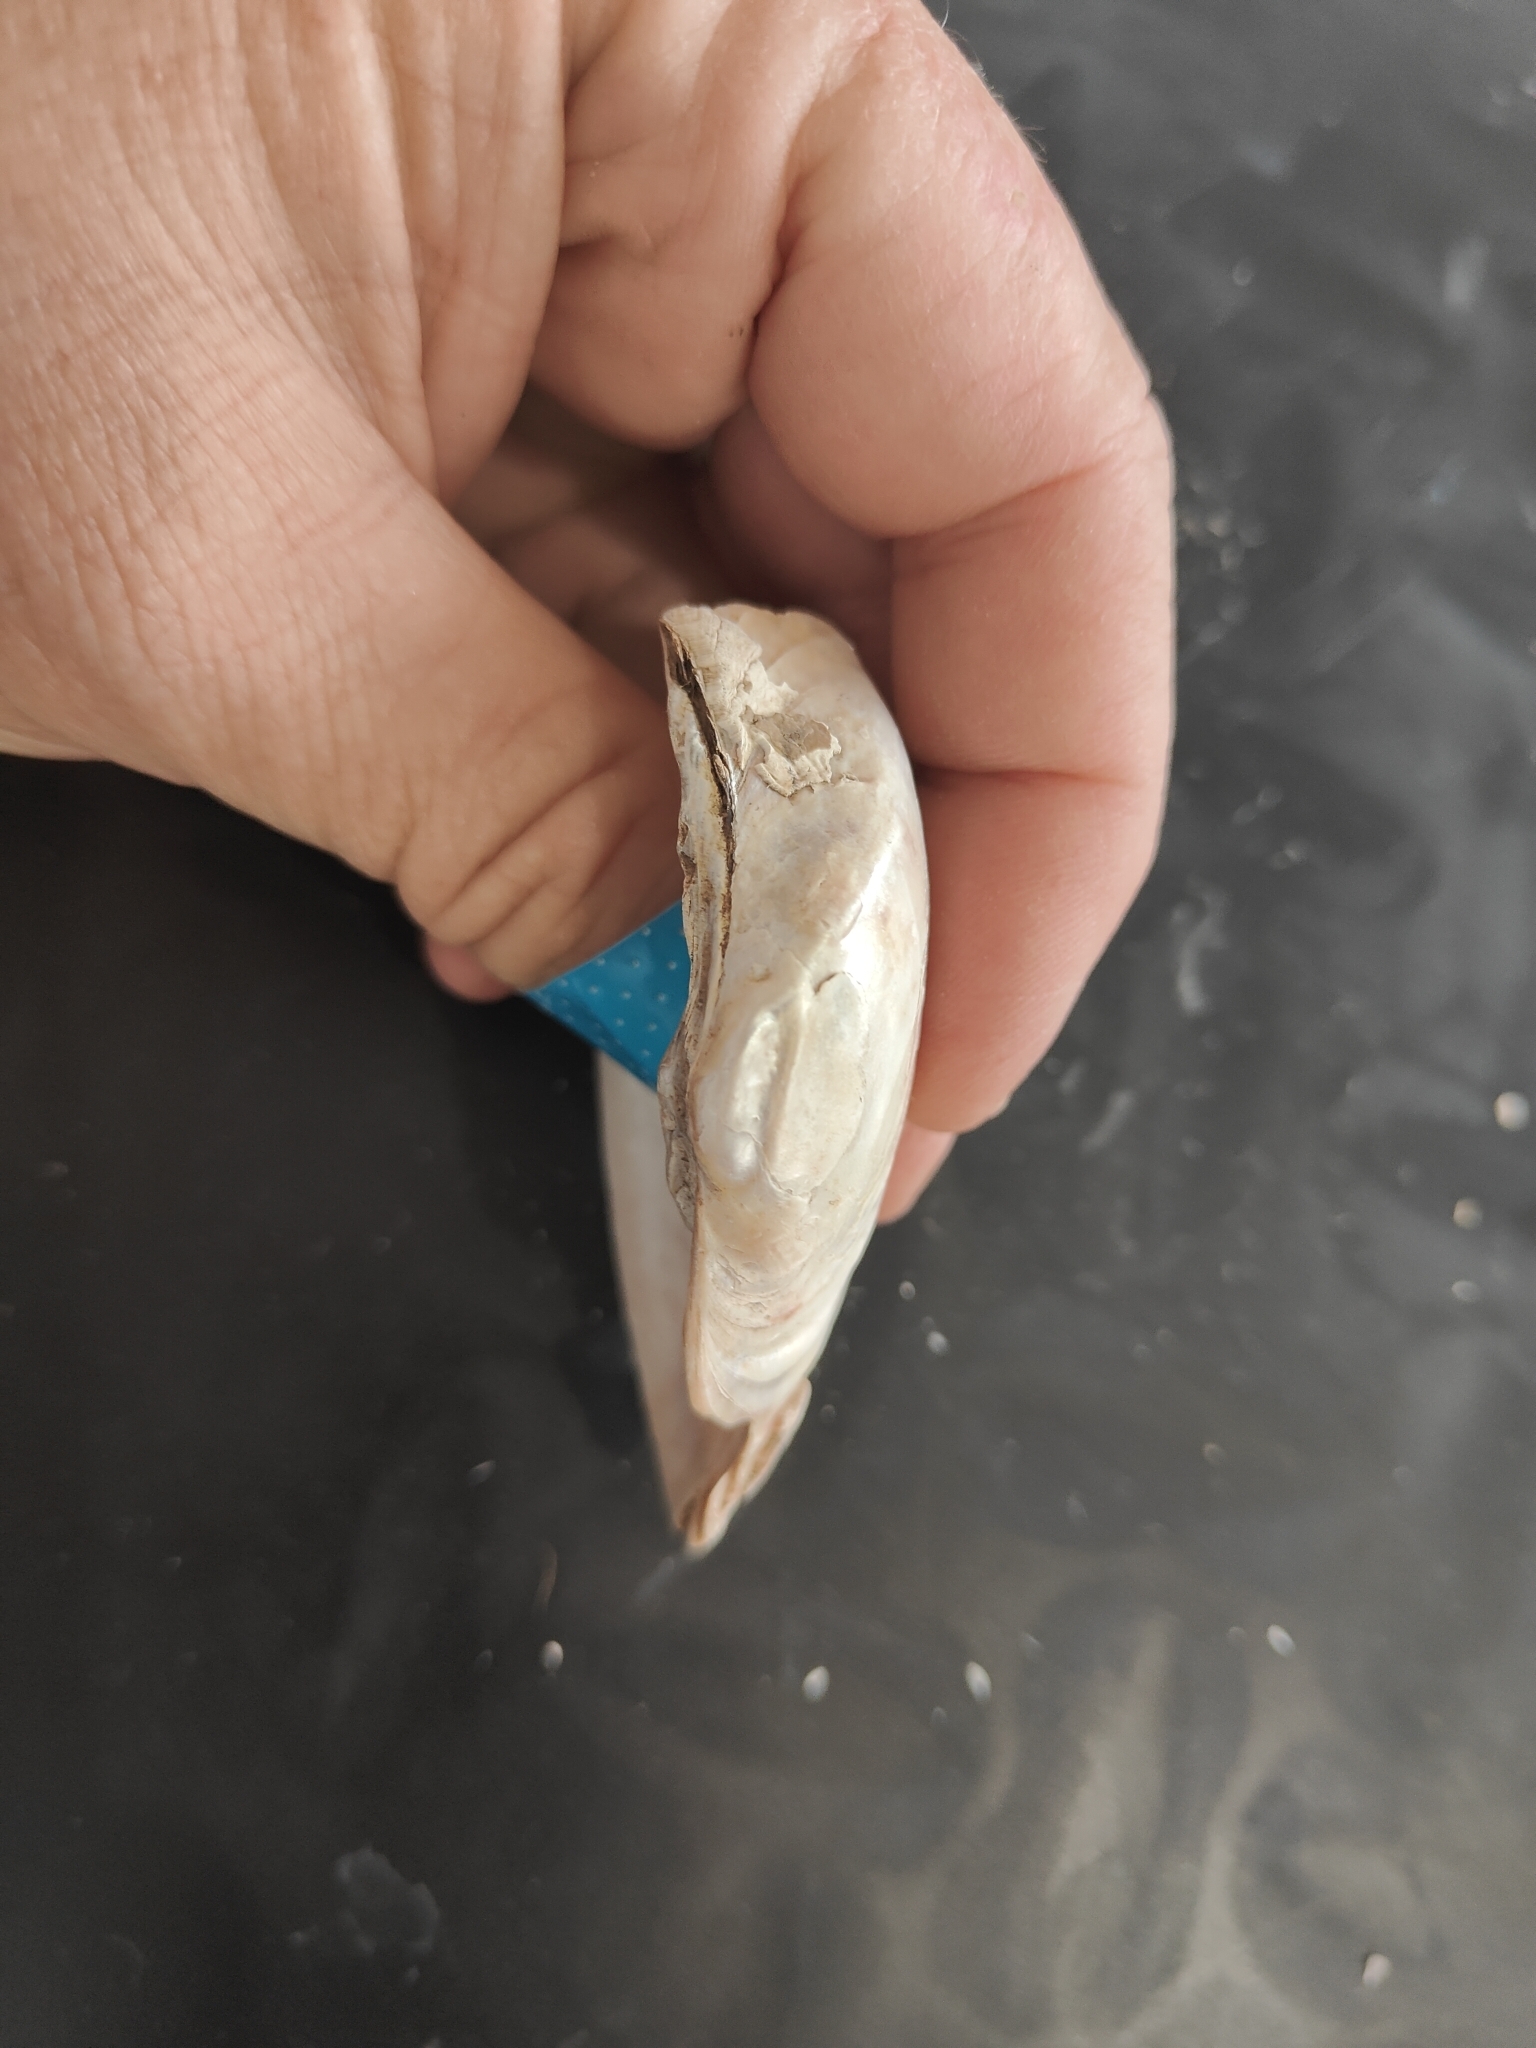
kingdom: Animalia
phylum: Mollusca
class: Bivalvia
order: Unionida
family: Unionidae
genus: Alasmidonta
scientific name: Alasmidonta marginata
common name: Elktoe
